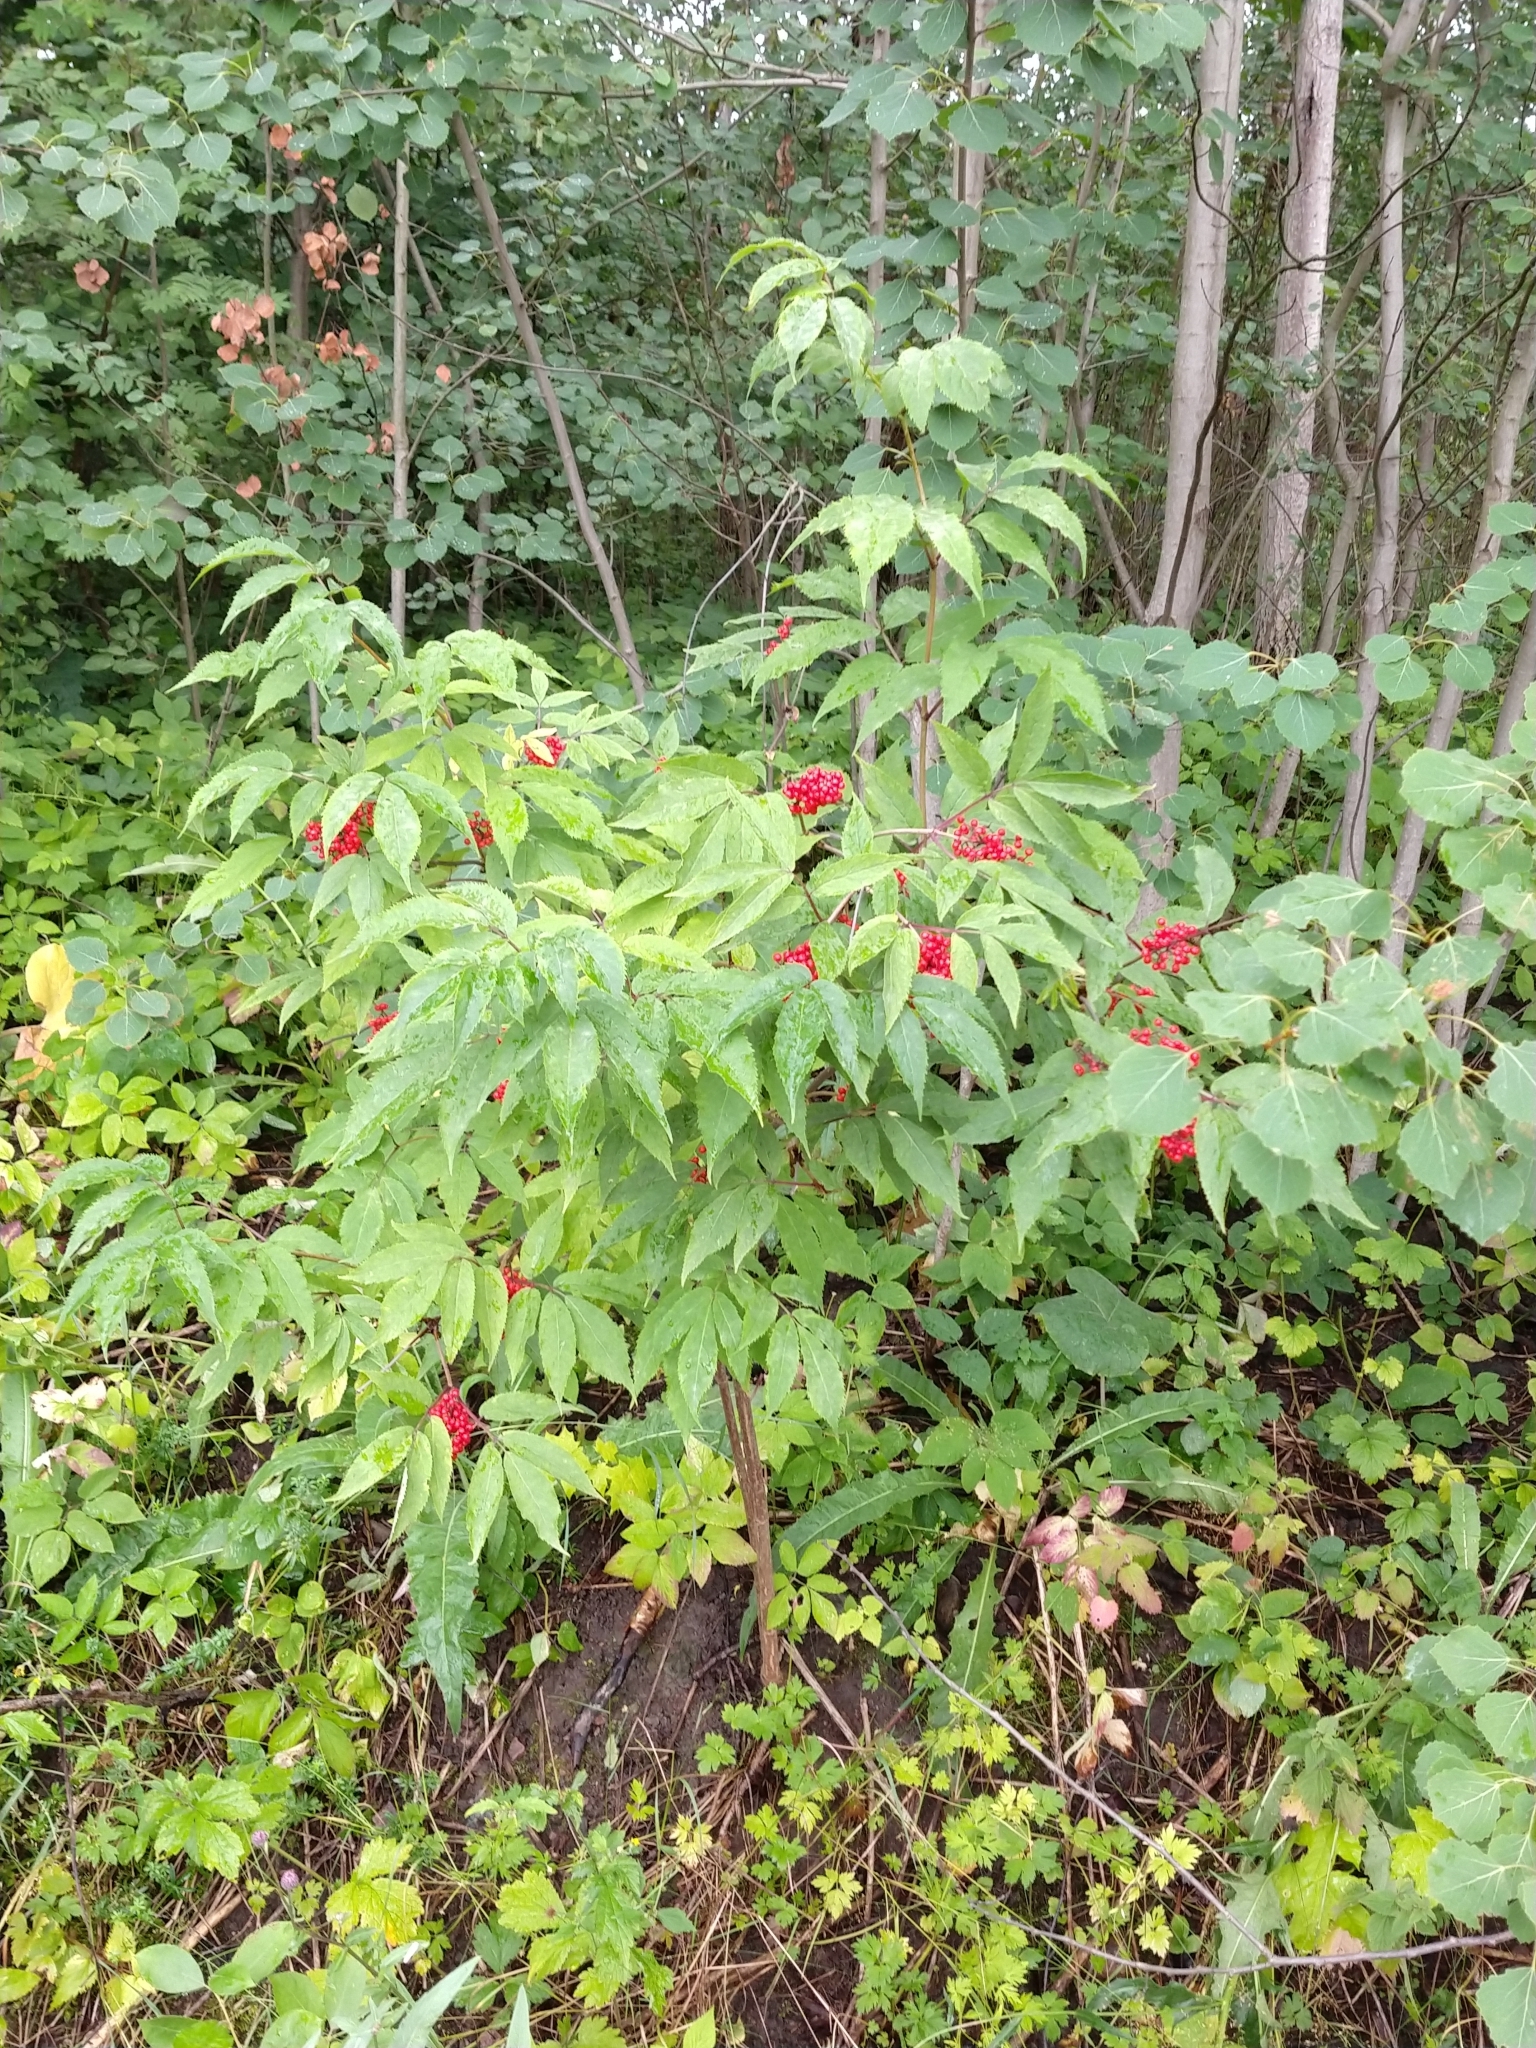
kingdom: Plantae
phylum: Tracheophyta
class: Magnoliopsida
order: Dipsacales
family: Viburnaceae
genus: Sambucus
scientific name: Sambucus racemosa
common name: Red-berried elder
